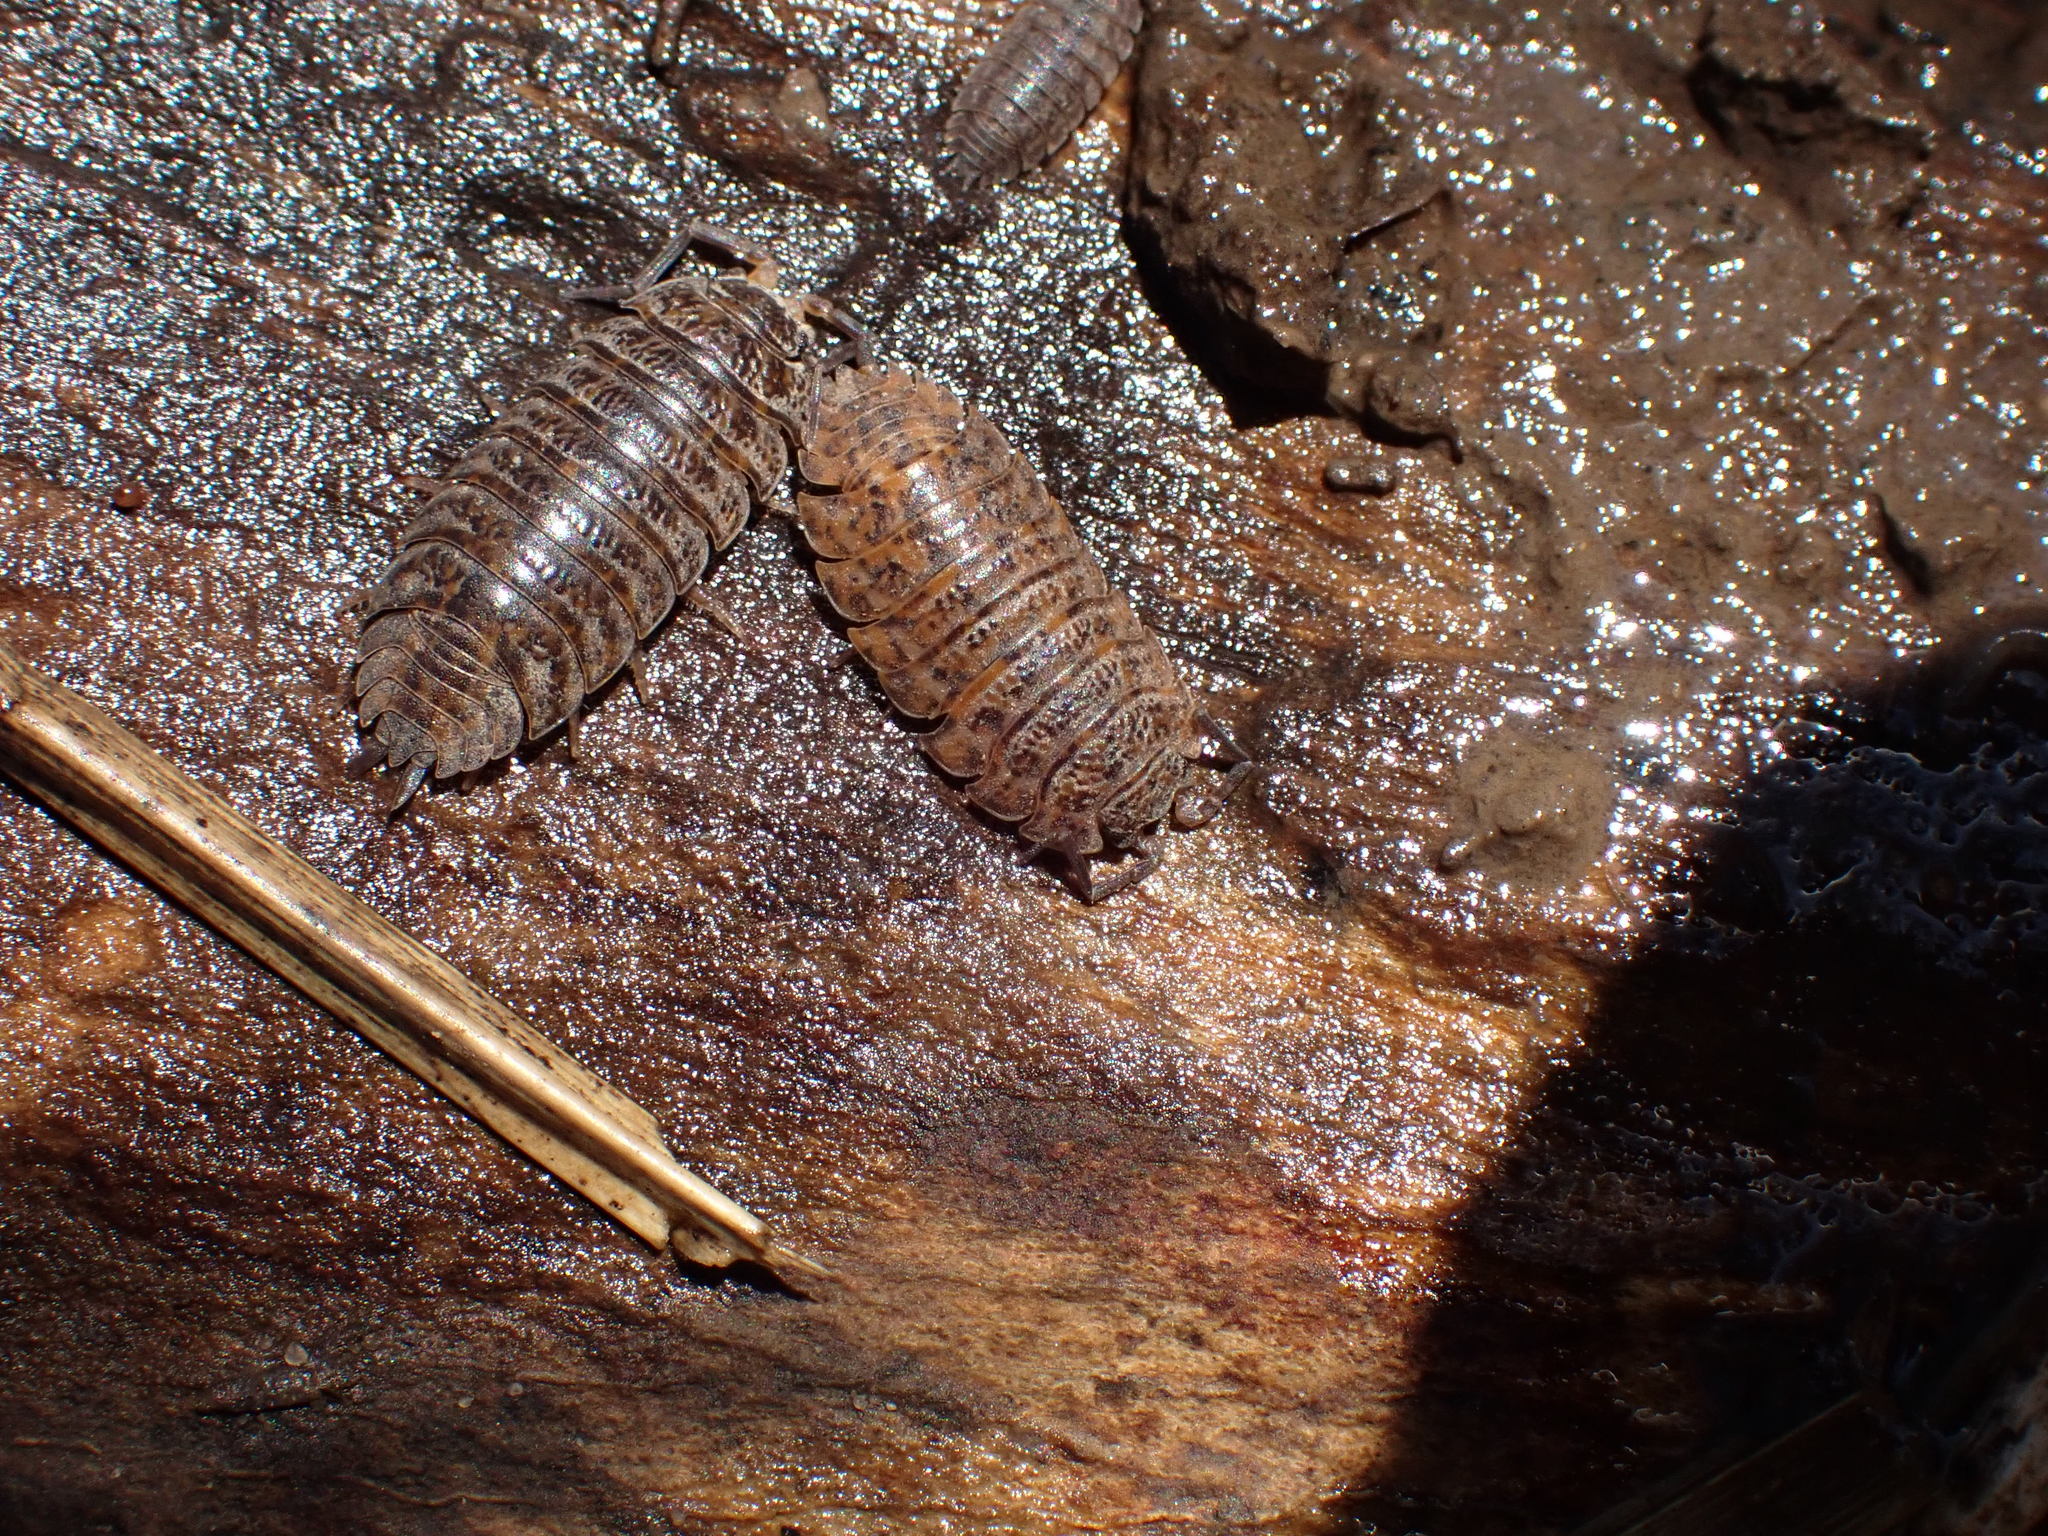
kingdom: Animalia
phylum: Arthropoda
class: Malacostraca
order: Isopoda
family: Trachelipodidae
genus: Trachelipus
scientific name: Trachelipus rathkii
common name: Isopod
